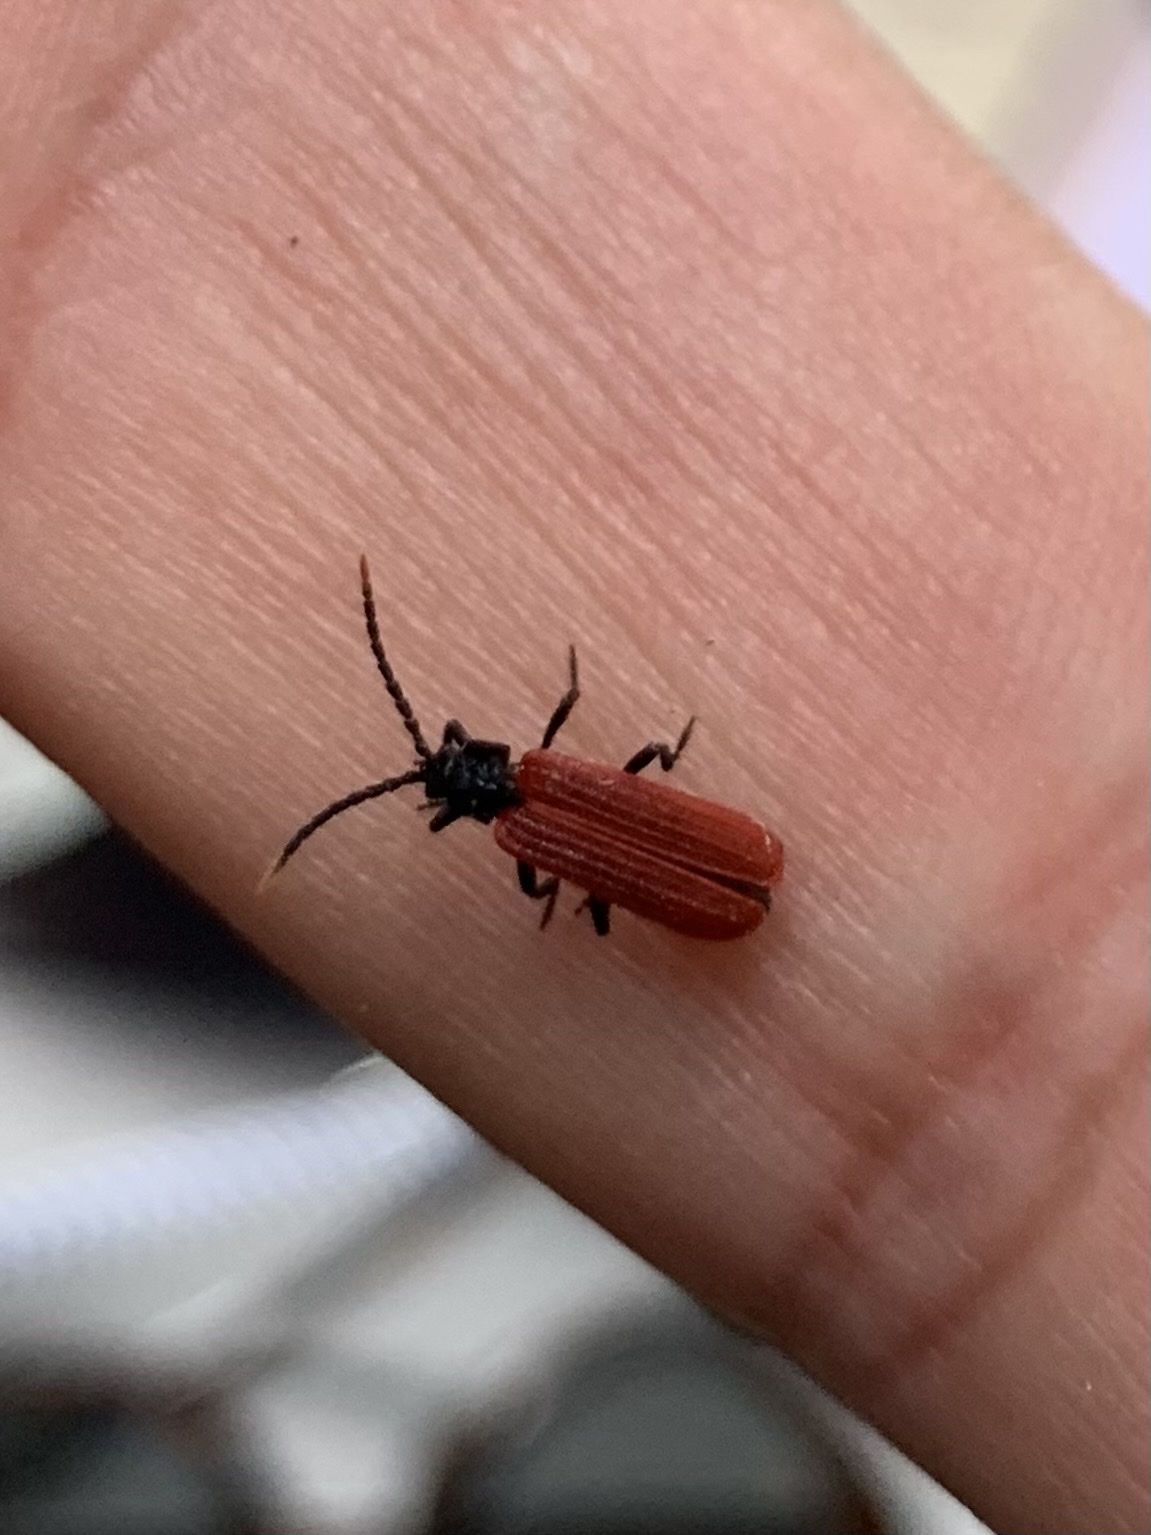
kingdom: Animalia
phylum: Arthropoda
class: Insecta
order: Coleoptera
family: Lycidae
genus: Platycis
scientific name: Platycis minutus
